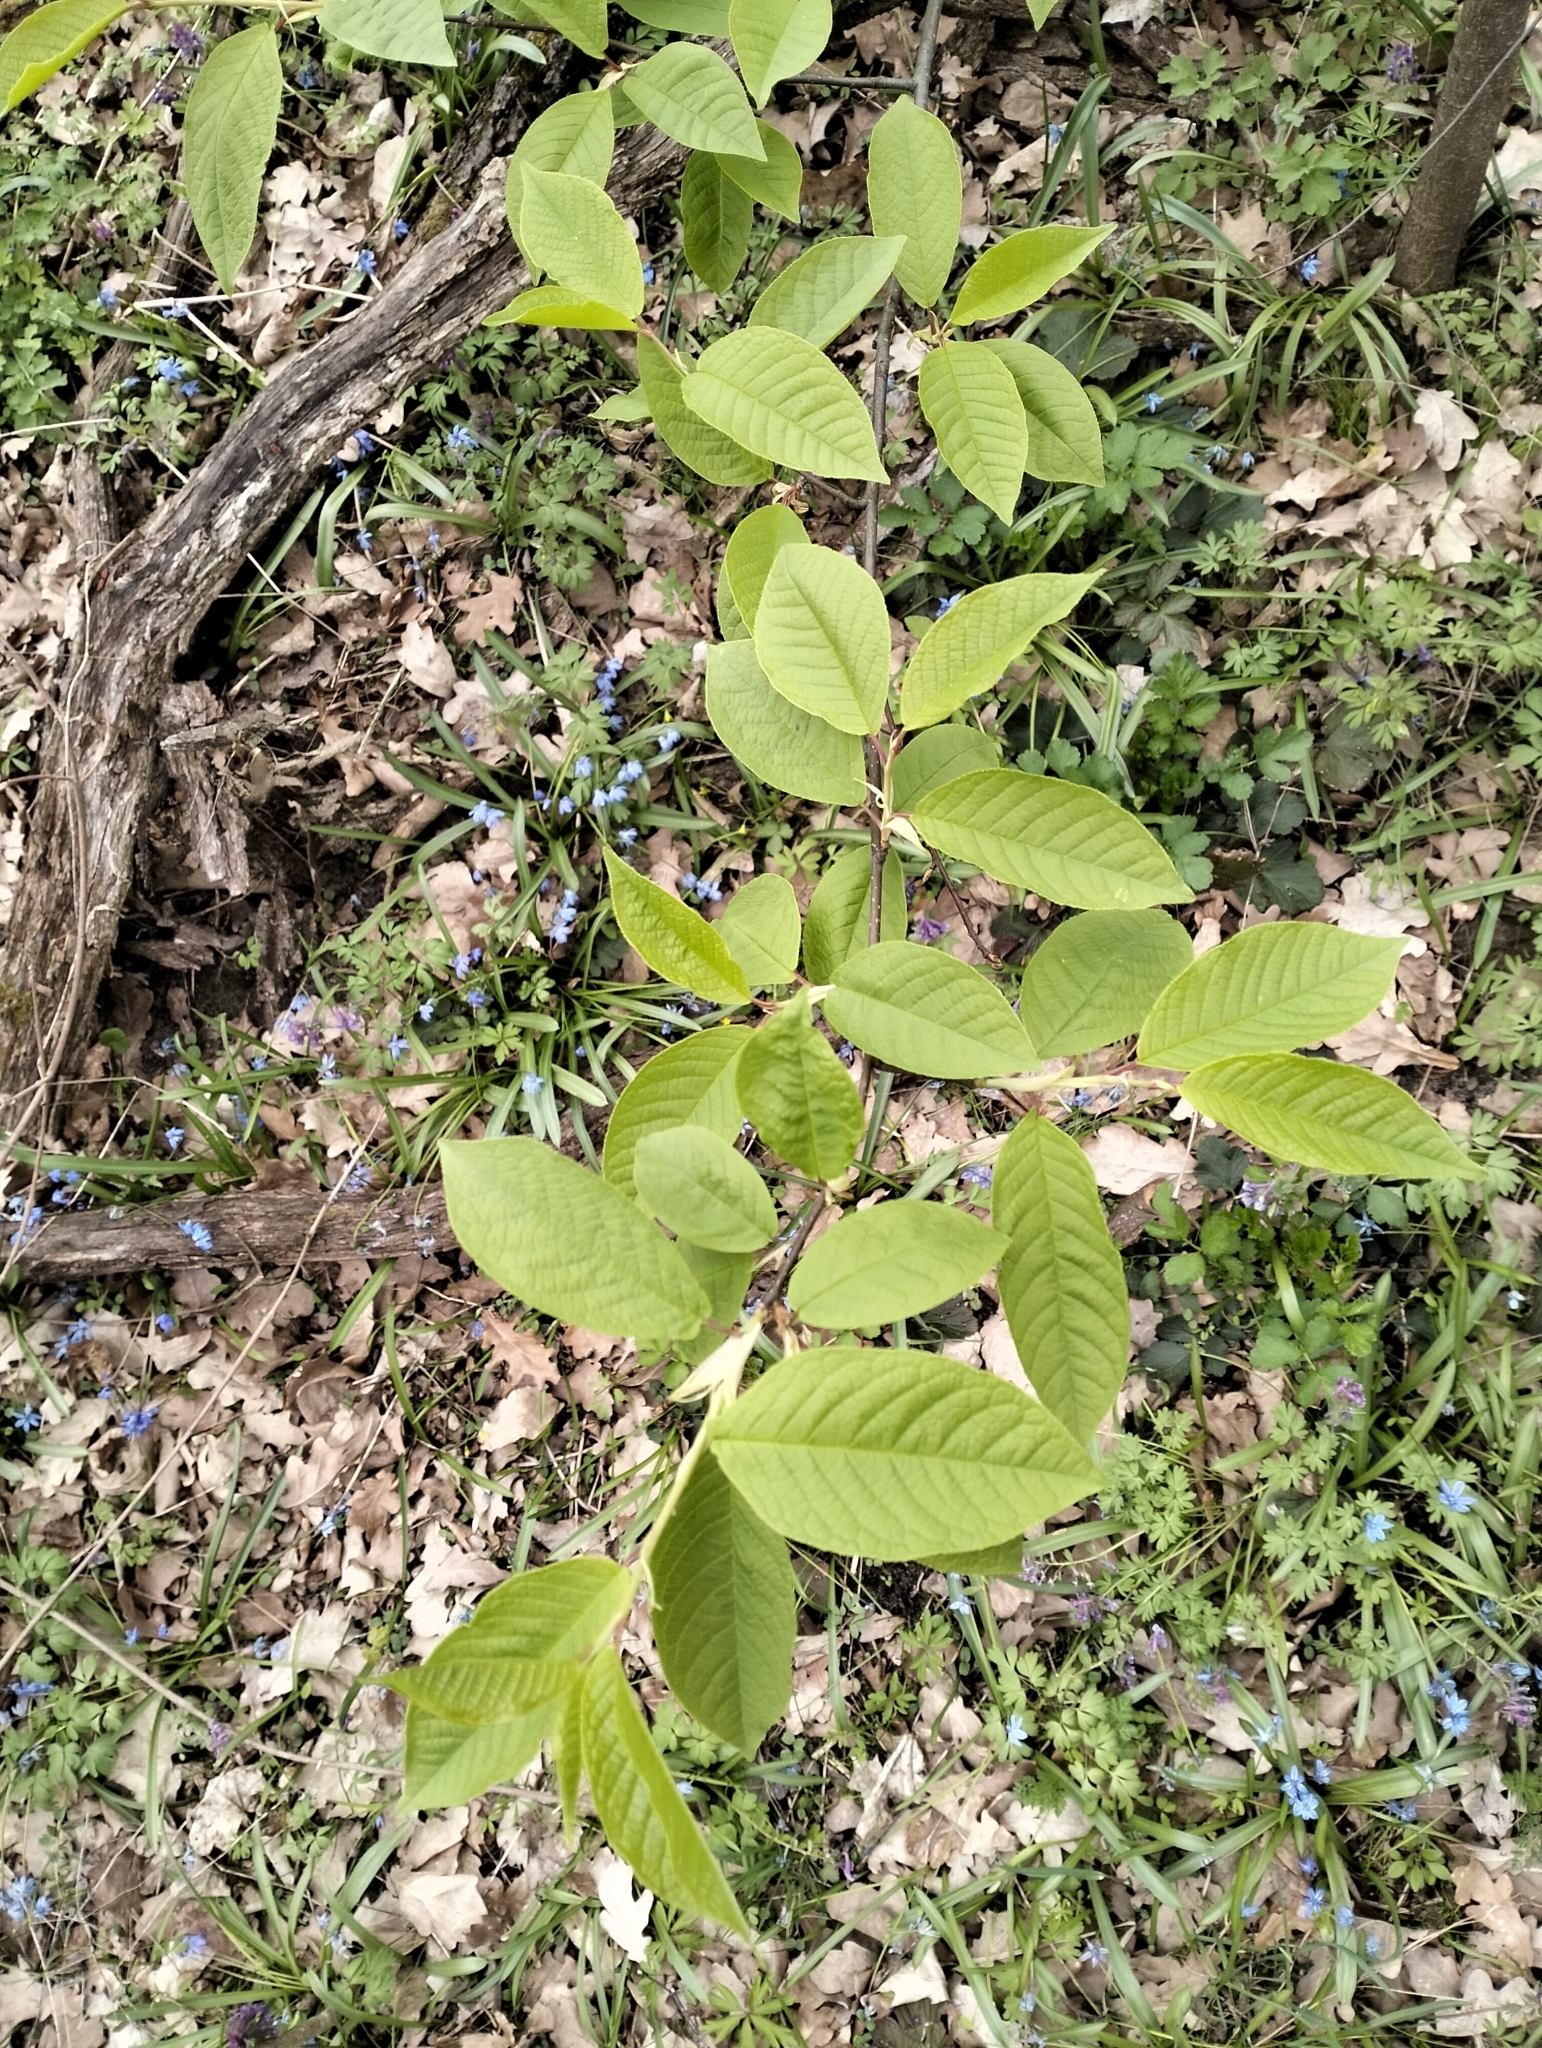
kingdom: Plantae
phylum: Tracheophyta
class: Magnoliopsida
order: Rosales
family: Rosaceae
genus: Prunus
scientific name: Prunus padus
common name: Bird cherry
